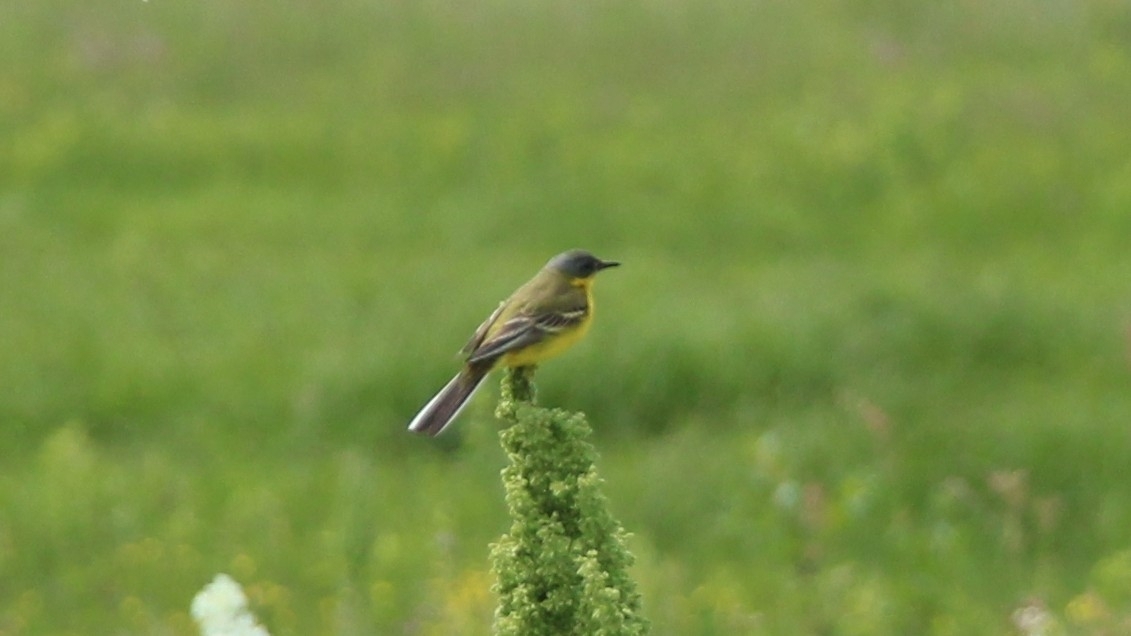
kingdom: Animalia
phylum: Chordata
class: Aves
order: Passeriformes
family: Motacillidae
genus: Motacilla
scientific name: Motacilla flava
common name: Western yellow wagtail
